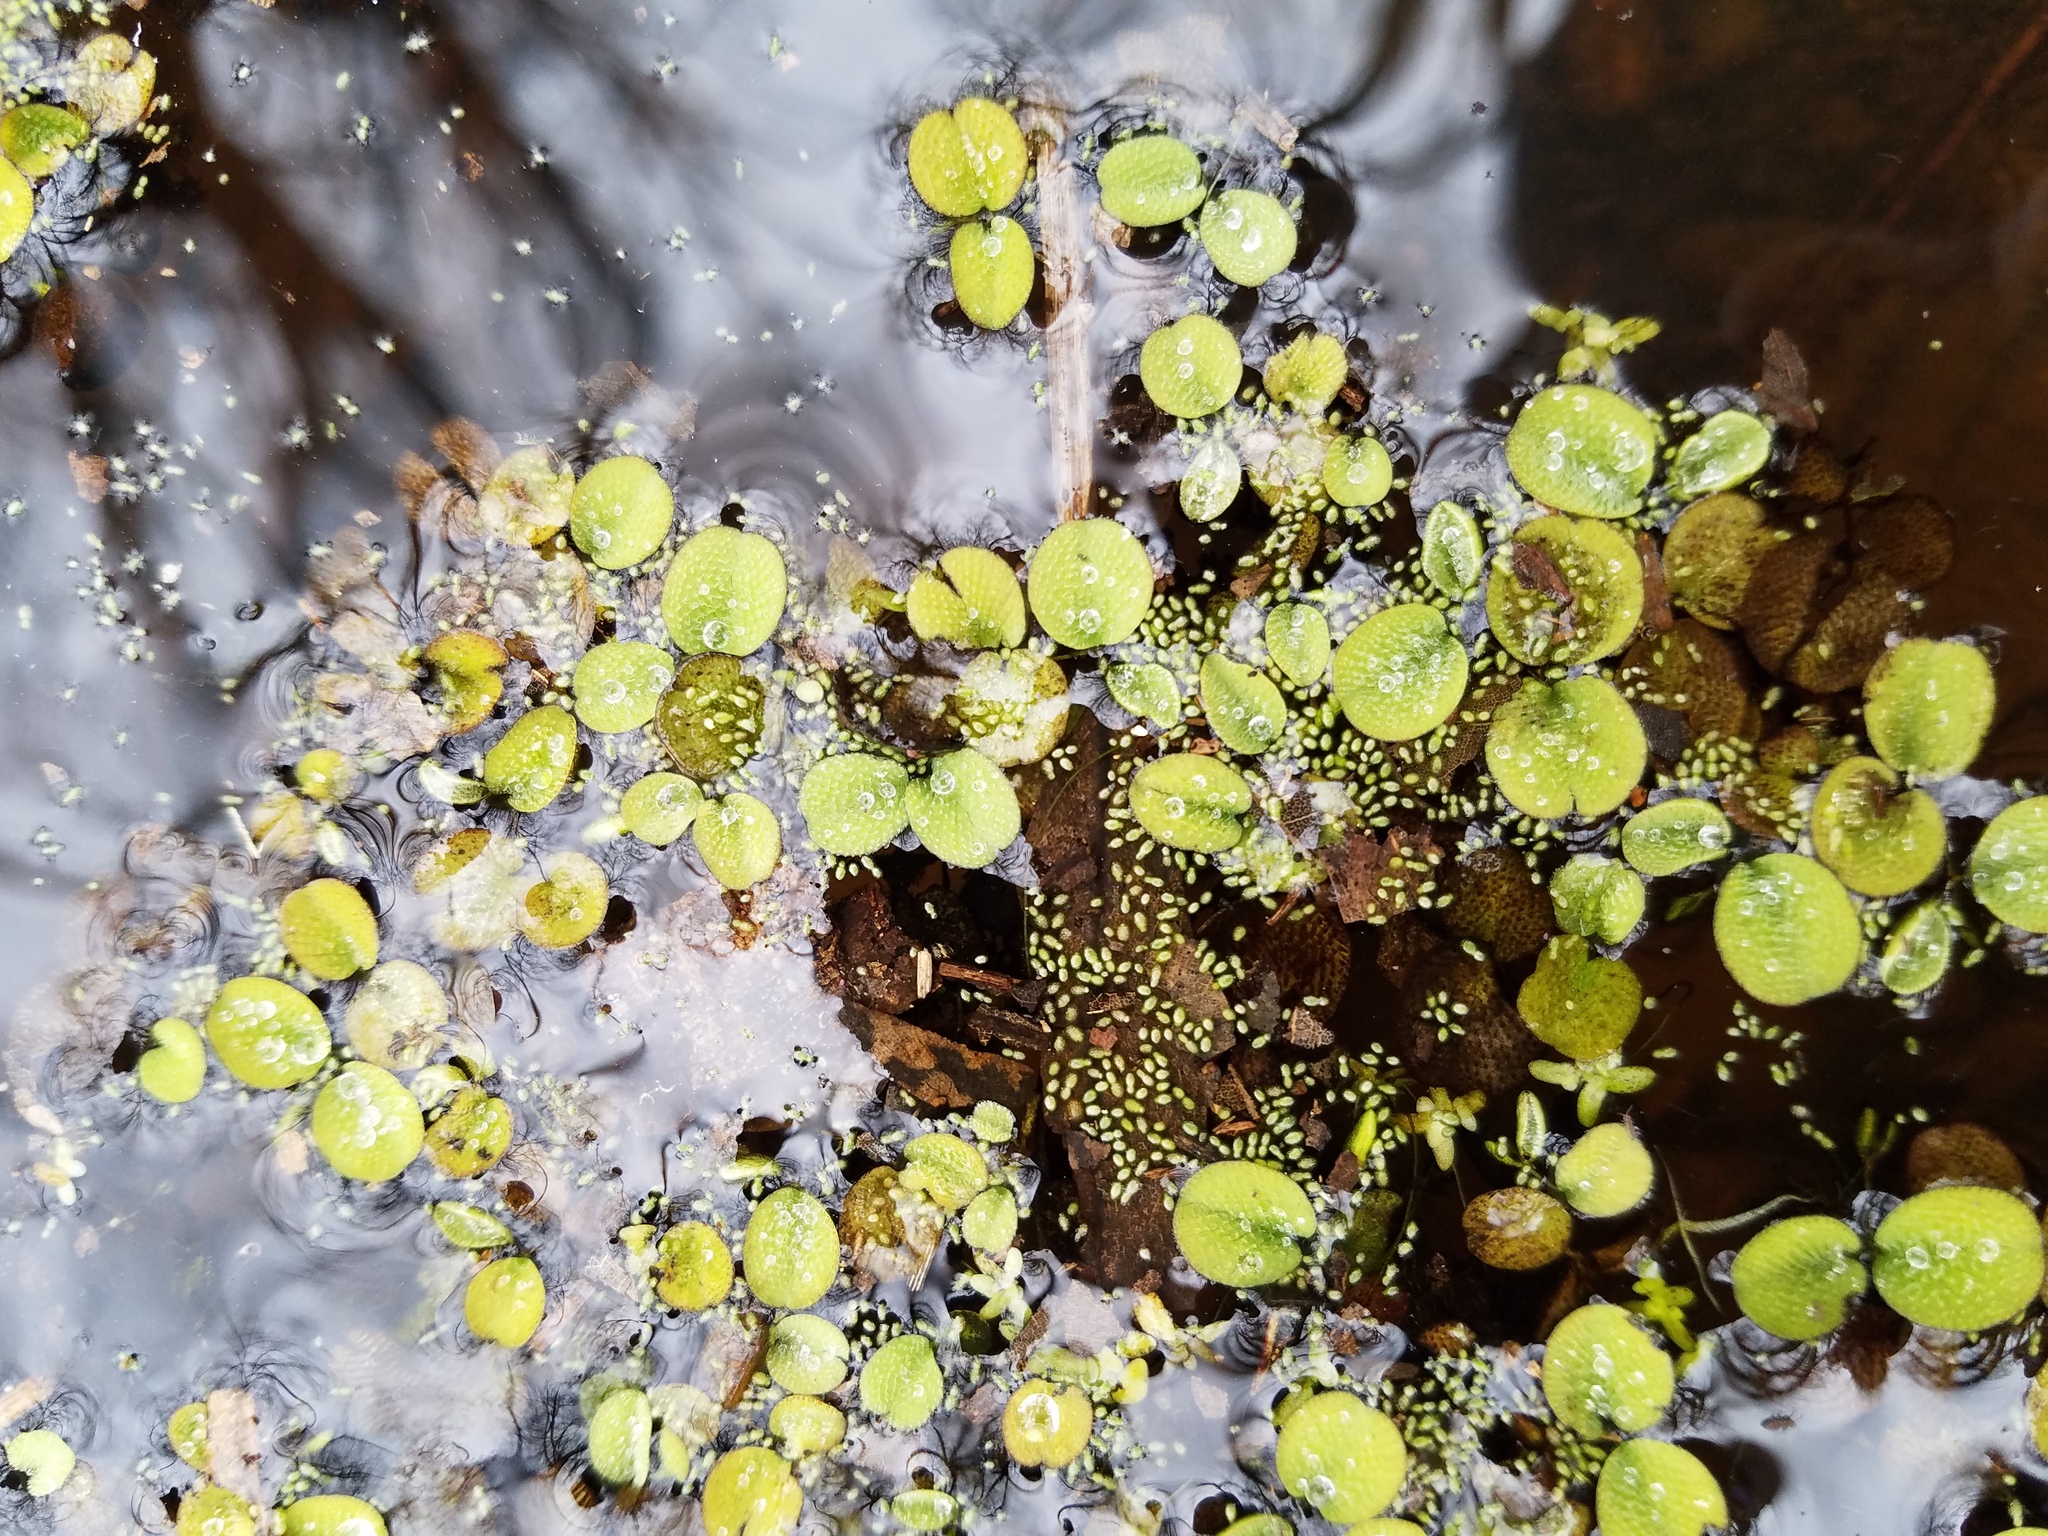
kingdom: Plantae
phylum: Tracheophyta
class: Polypodiopsida
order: Salviniales
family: Salviniaceae
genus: Salvinia
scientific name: Salvinia minima
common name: Water spangles
